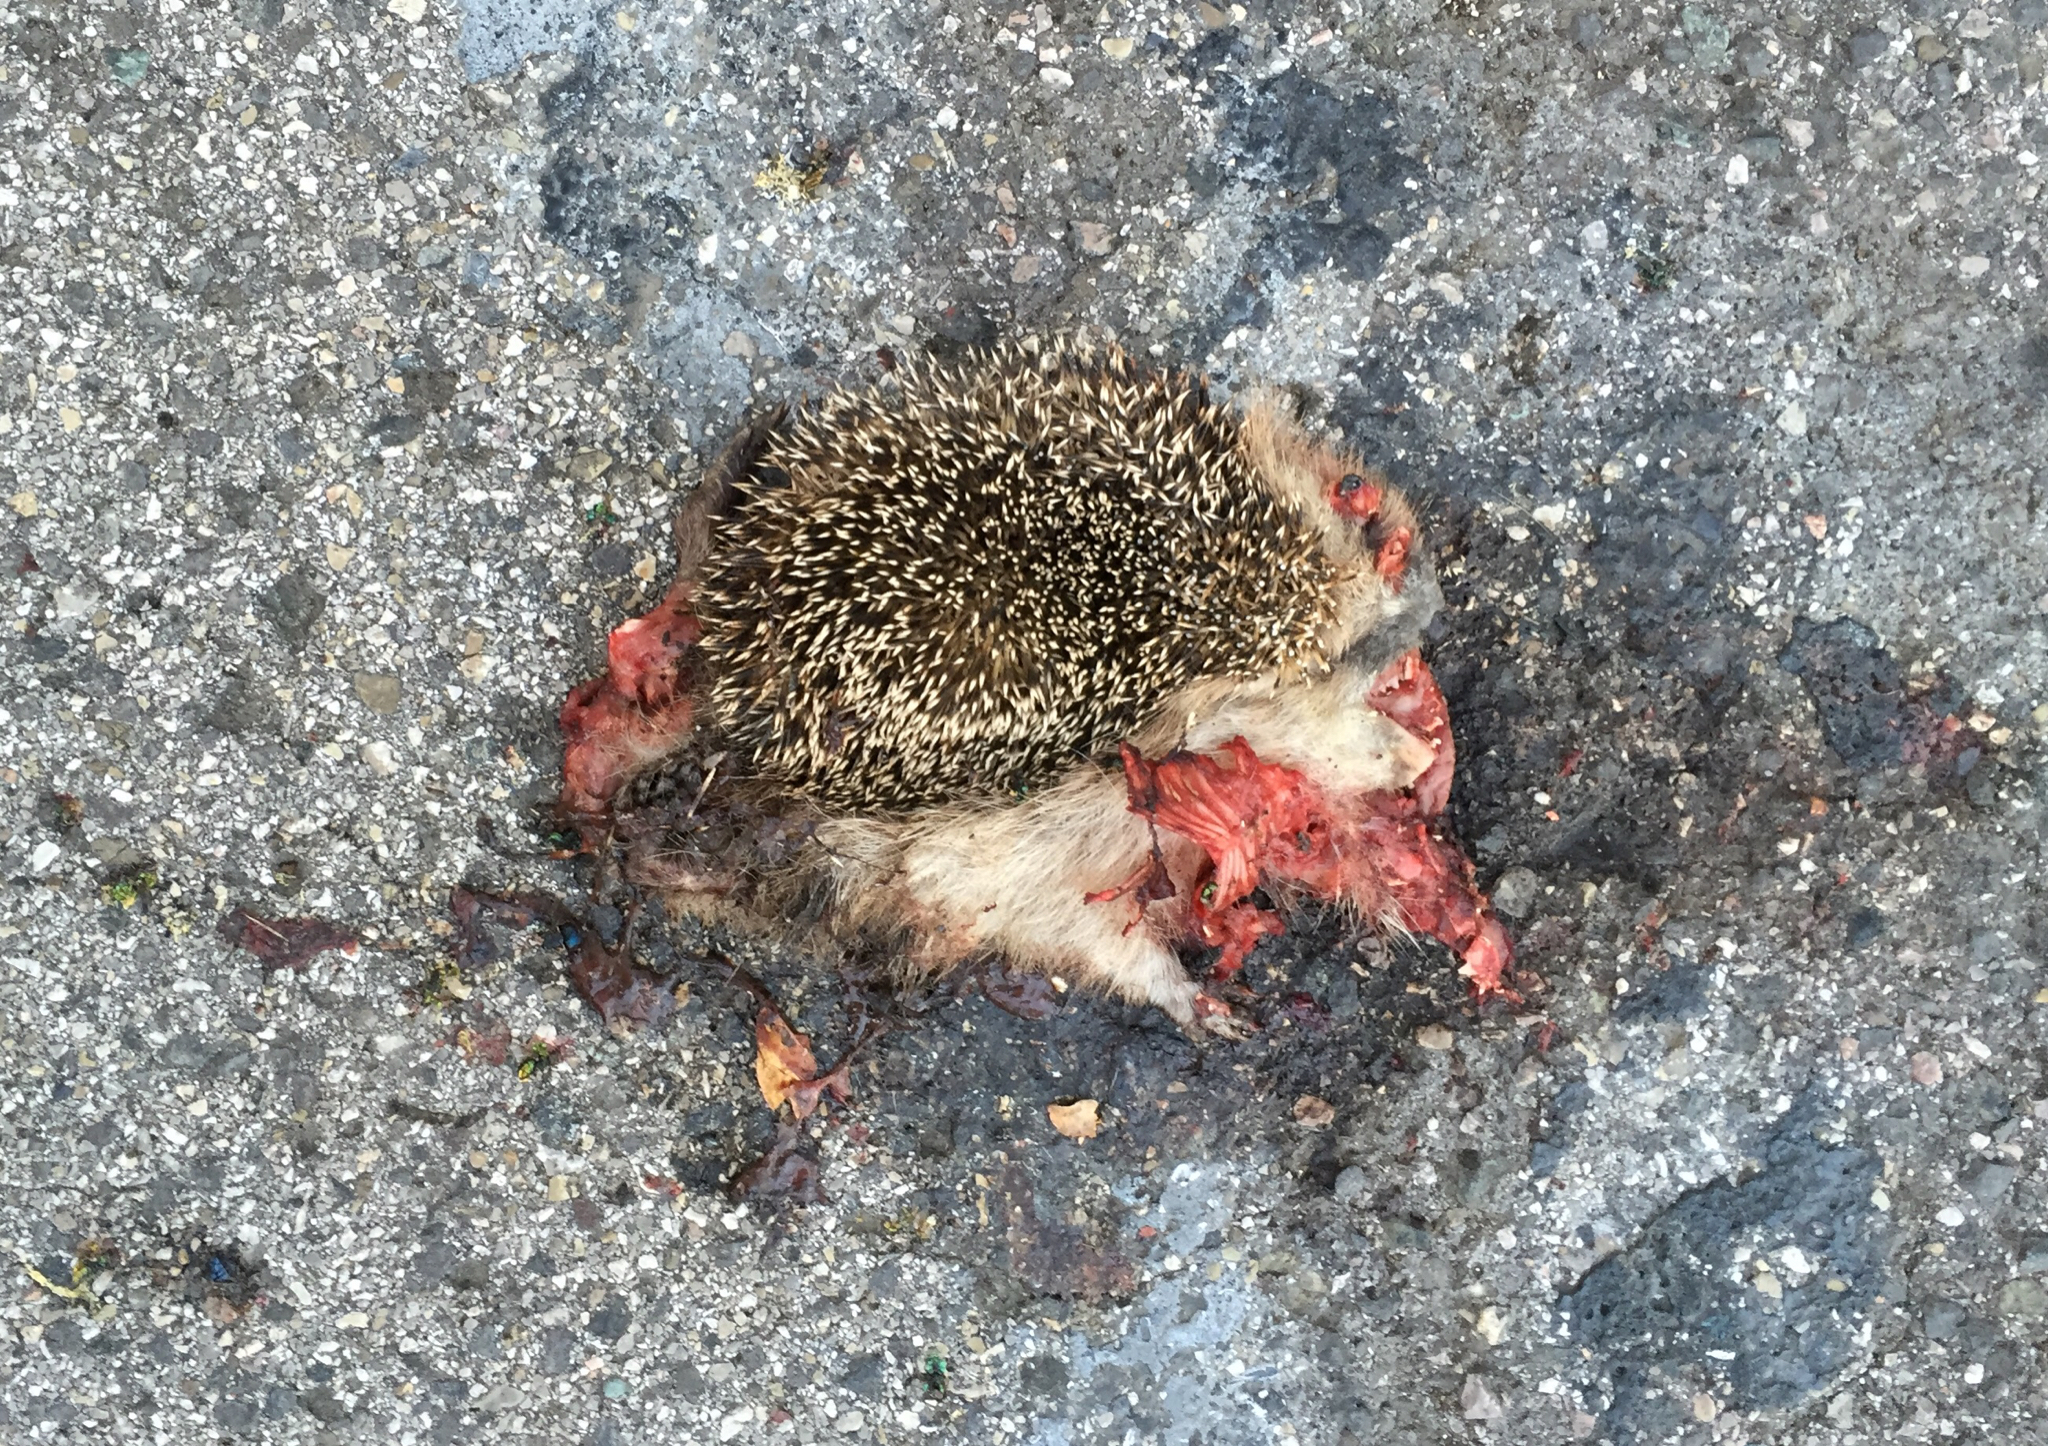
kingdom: Animalia
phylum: Chordata
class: Mammalia
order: Erinaceomorpha
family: Erinaceidae
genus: Erinaceus
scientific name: Erinaceus europaeus
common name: West european hedgehog
